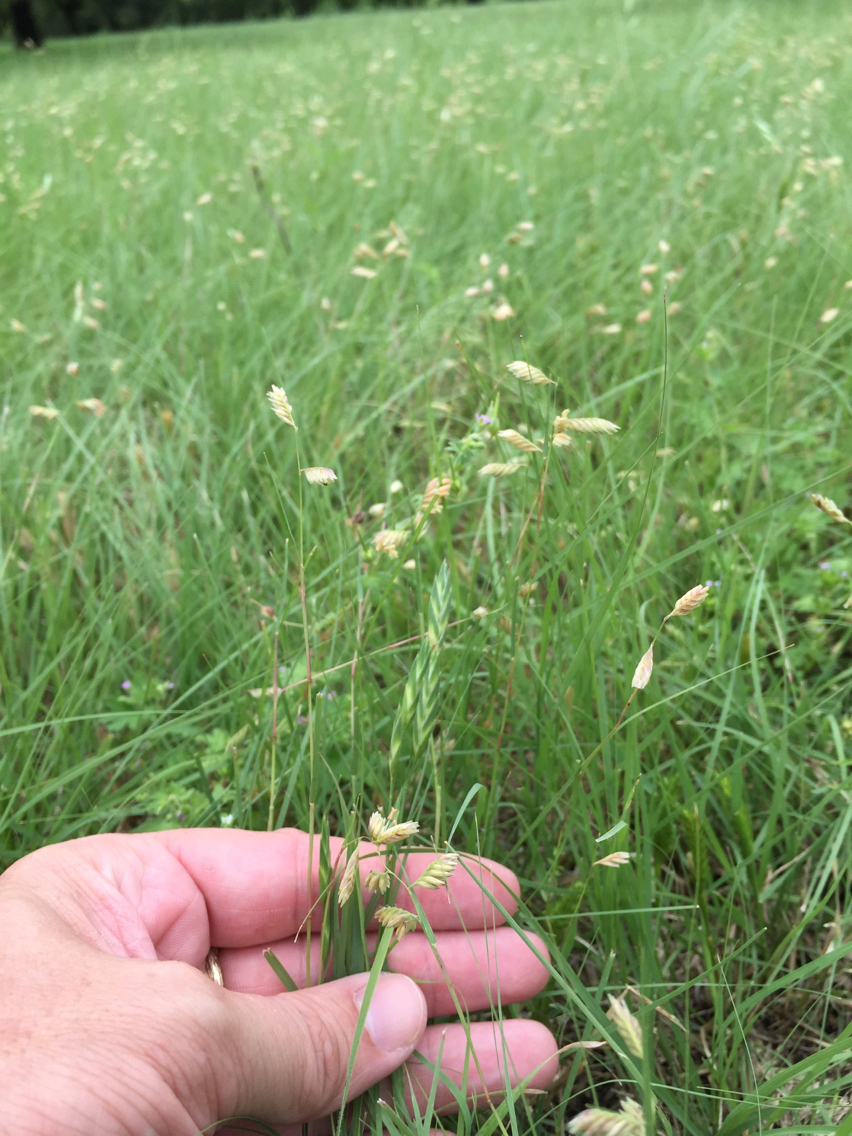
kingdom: Plantae
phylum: Tracheophyta
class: Liliopsida
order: Poales
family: Poaceae
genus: Bouteloua
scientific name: Bouteloua dactyloides
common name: Buffalo grass
